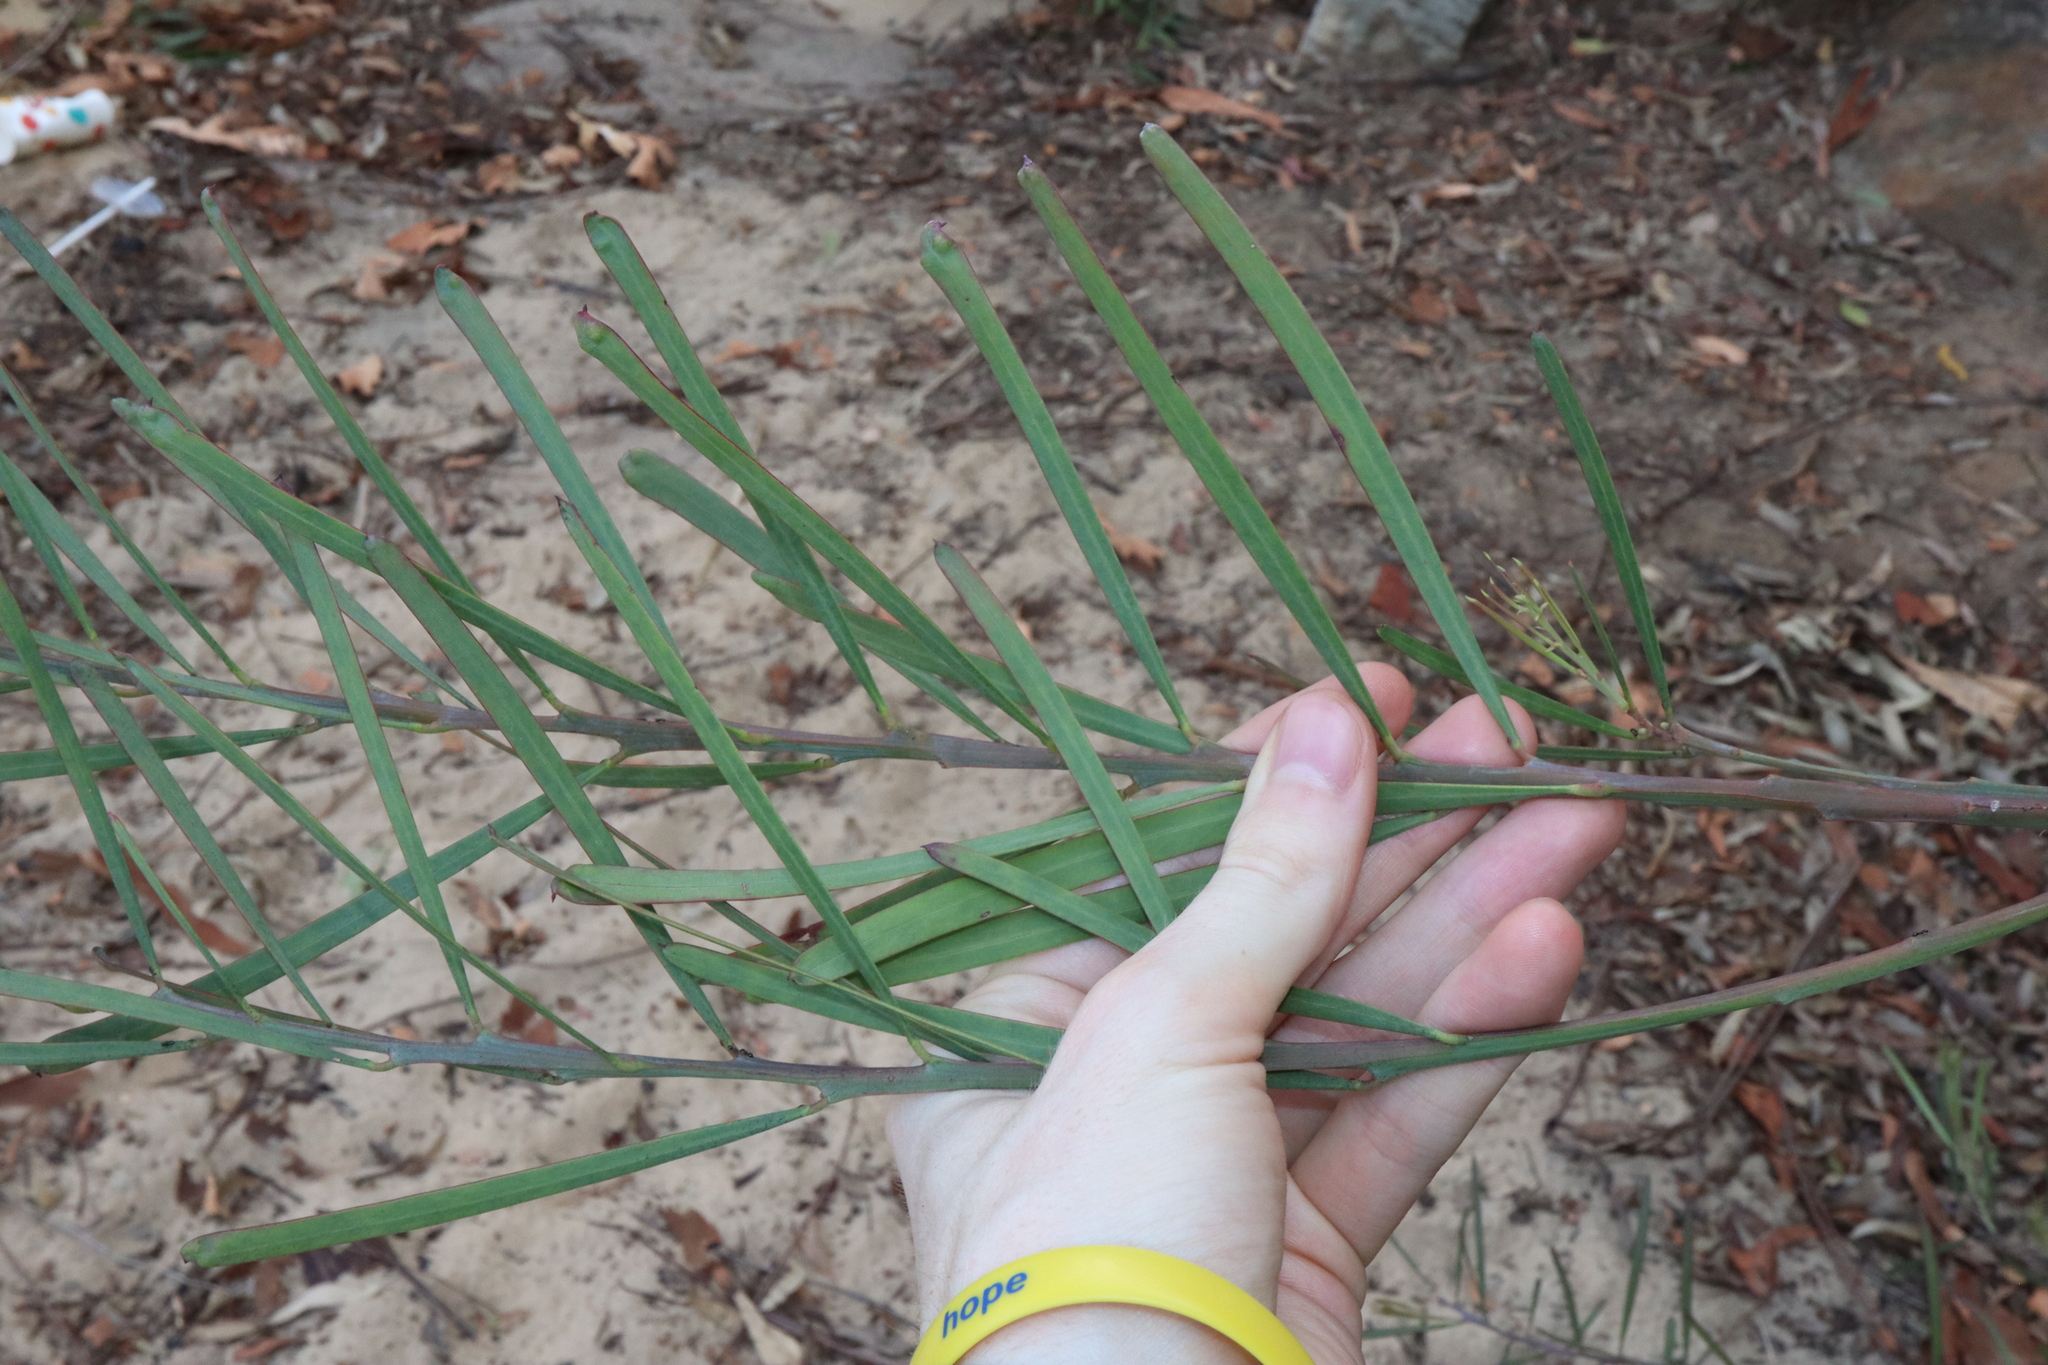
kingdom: Plantae
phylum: Tracheophyta
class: Magnoliopsida
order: Fabales
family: Fabaceae
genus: Acacia
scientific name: Acacia suaveolens
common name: Sweet acacia
